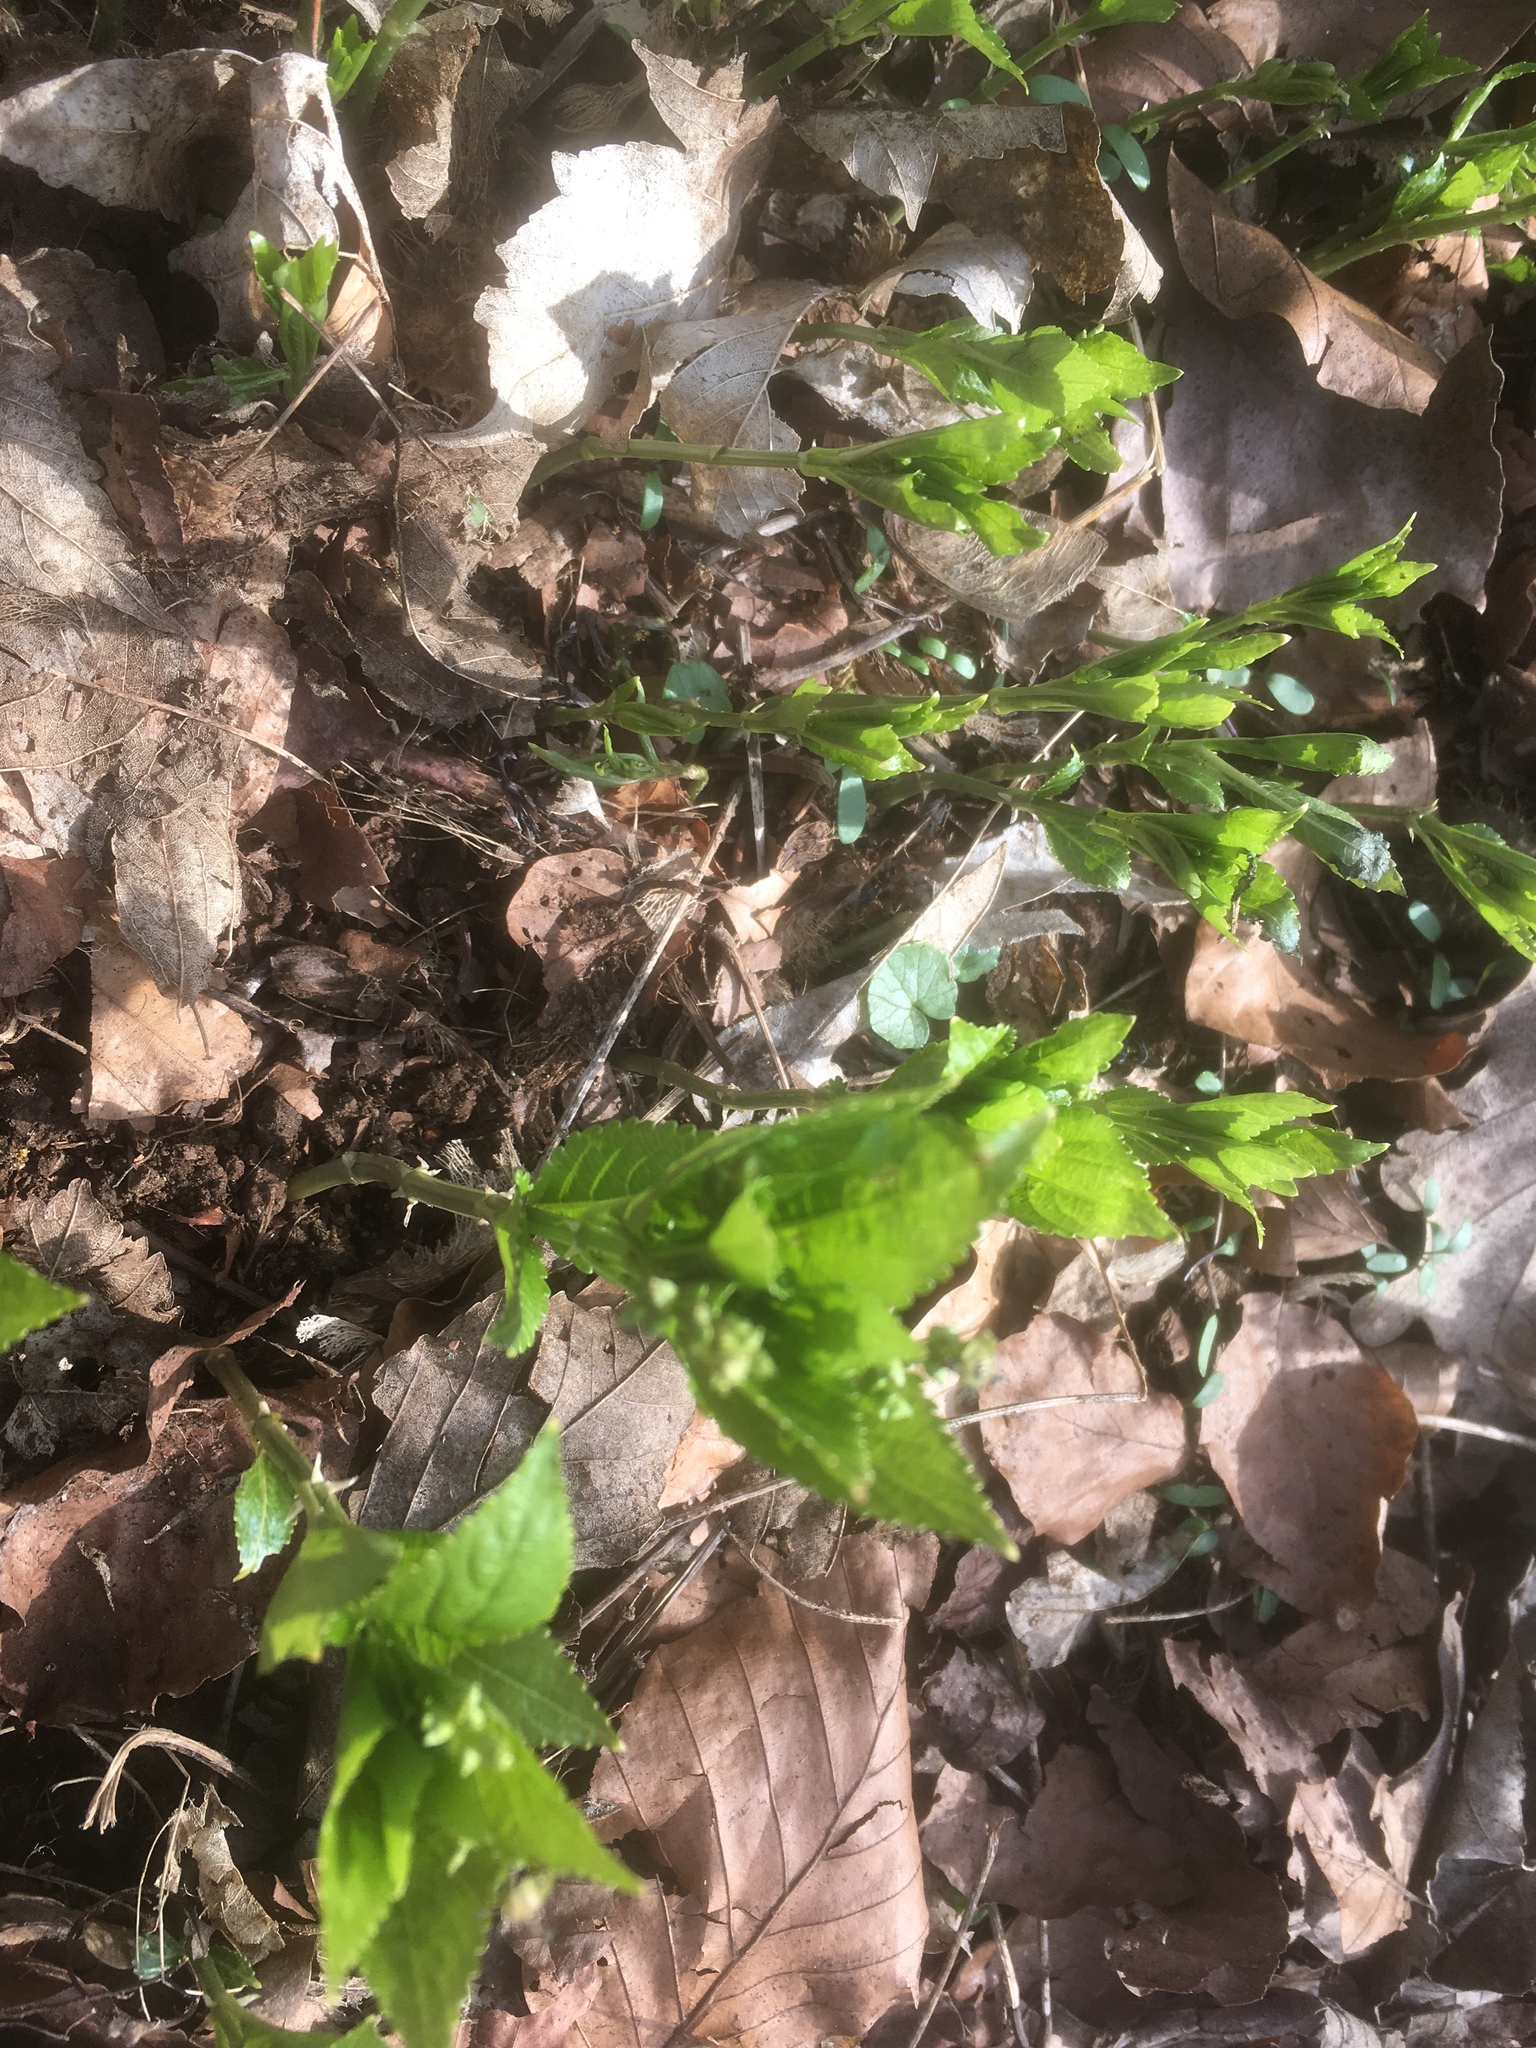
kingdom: Plantae
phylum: Tracheophyta
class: Magnoliopsida
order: Malpighiales
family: Euphorbiaceae
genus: Mercurialis
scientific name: Mercurialis perennis
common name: Dog mercury
